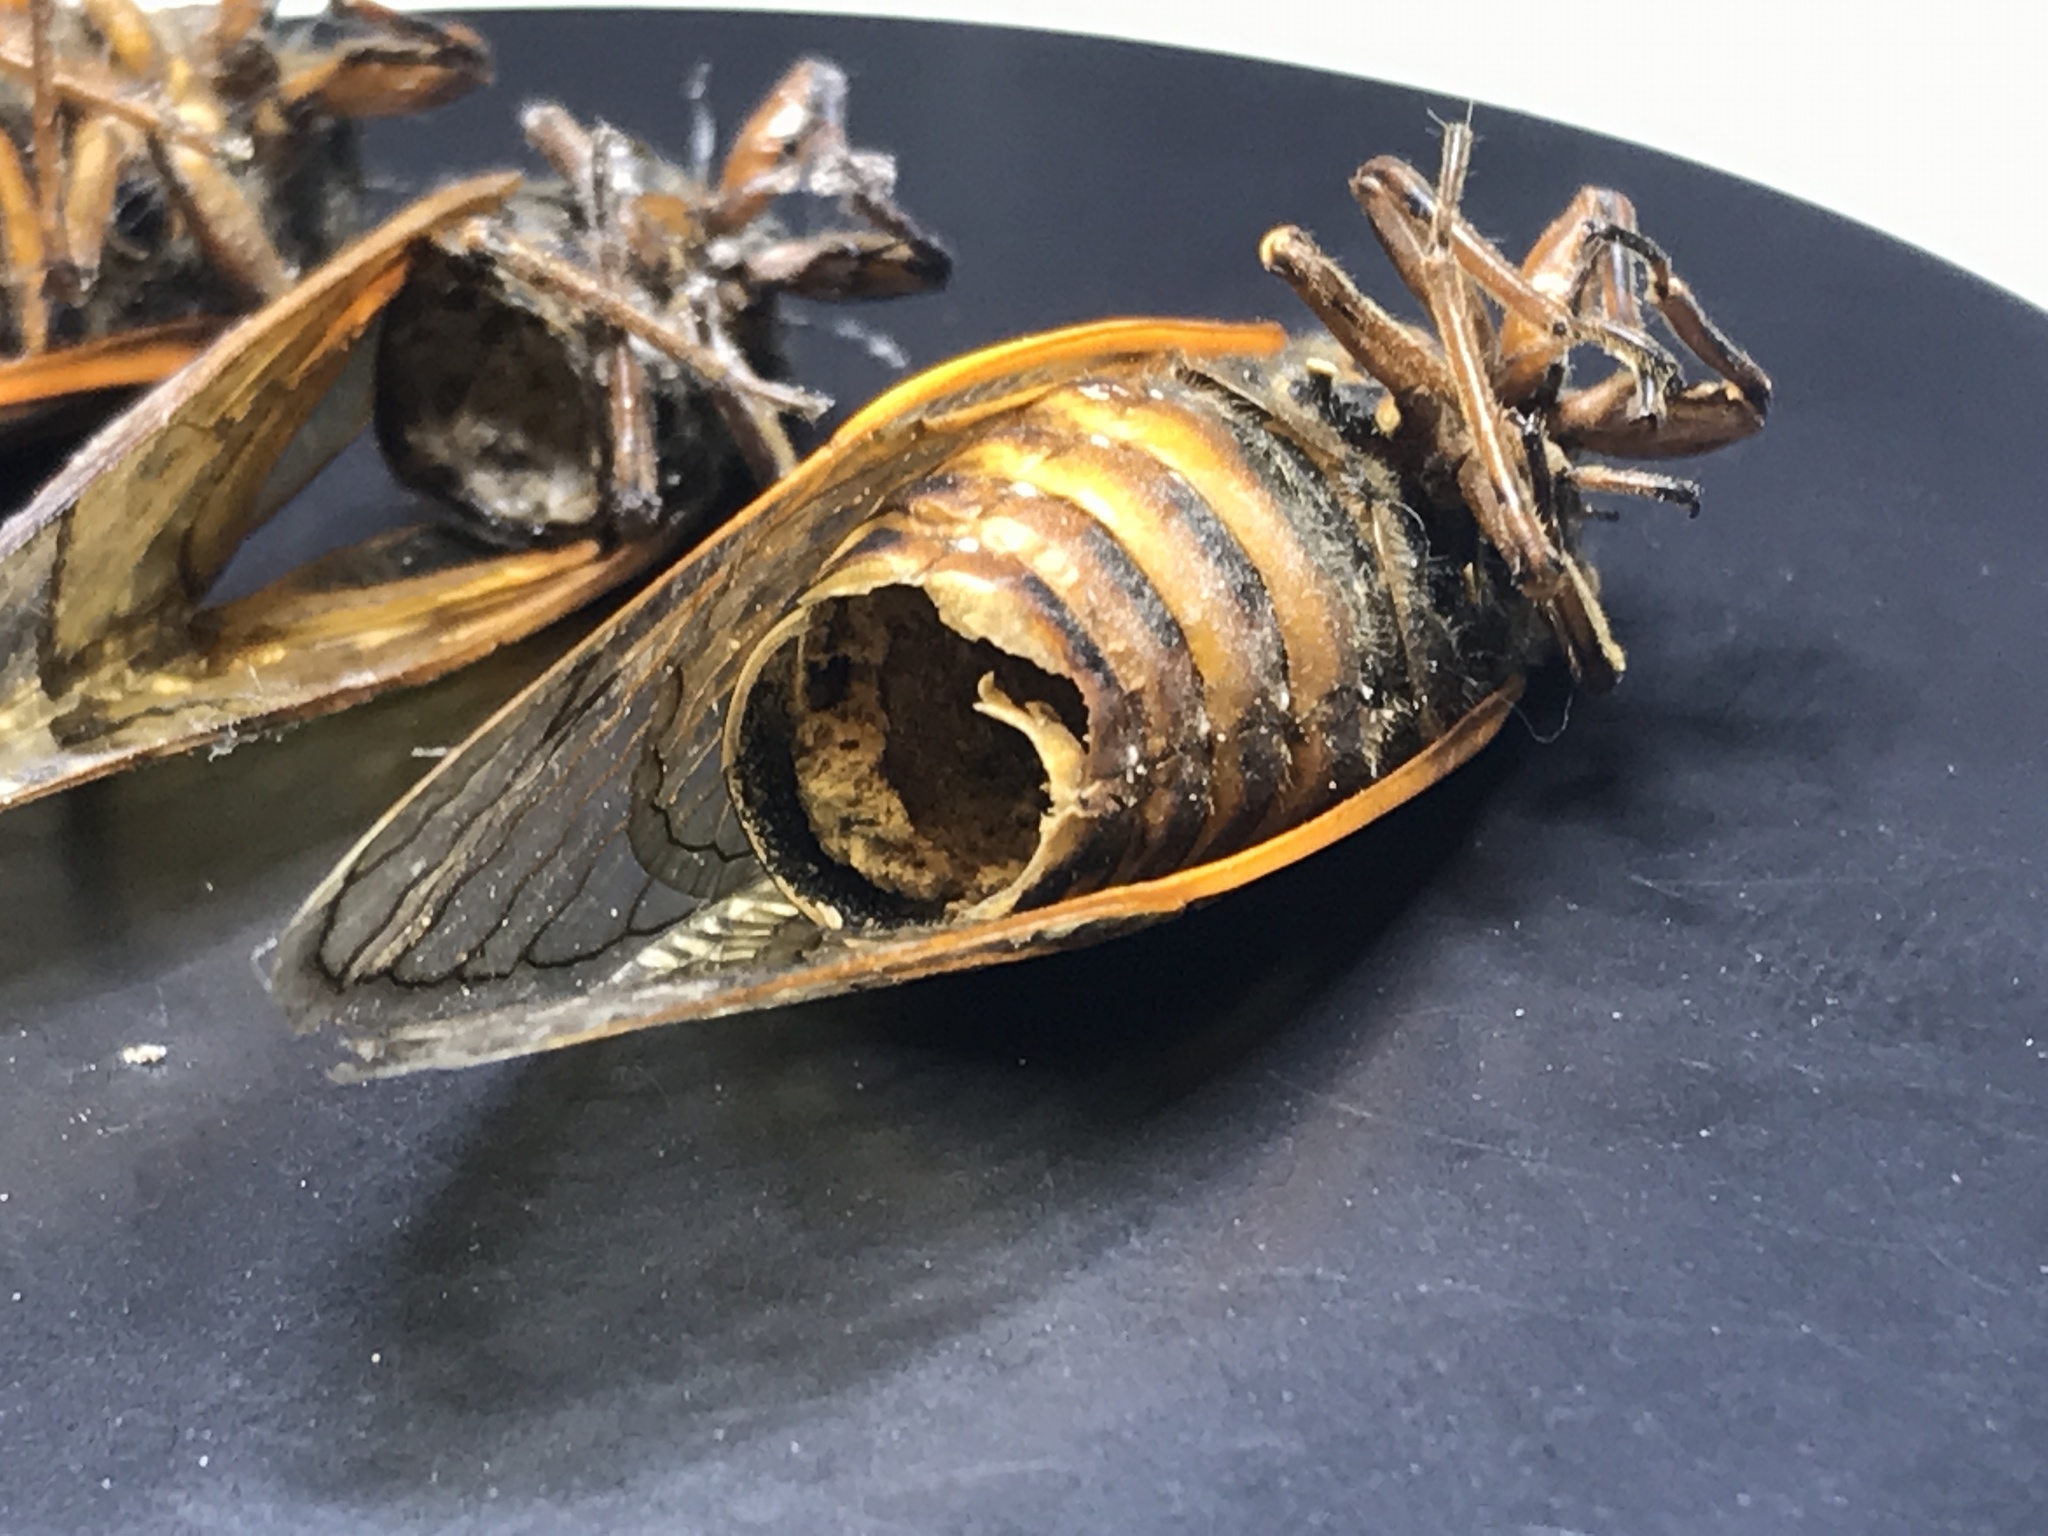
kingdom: Animalia
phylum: Arthropoda
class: Insecta
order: Hemiptera
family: Cicadidae
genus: Magicicada
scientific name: Magicicada septendecim
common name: Periodical cicada
